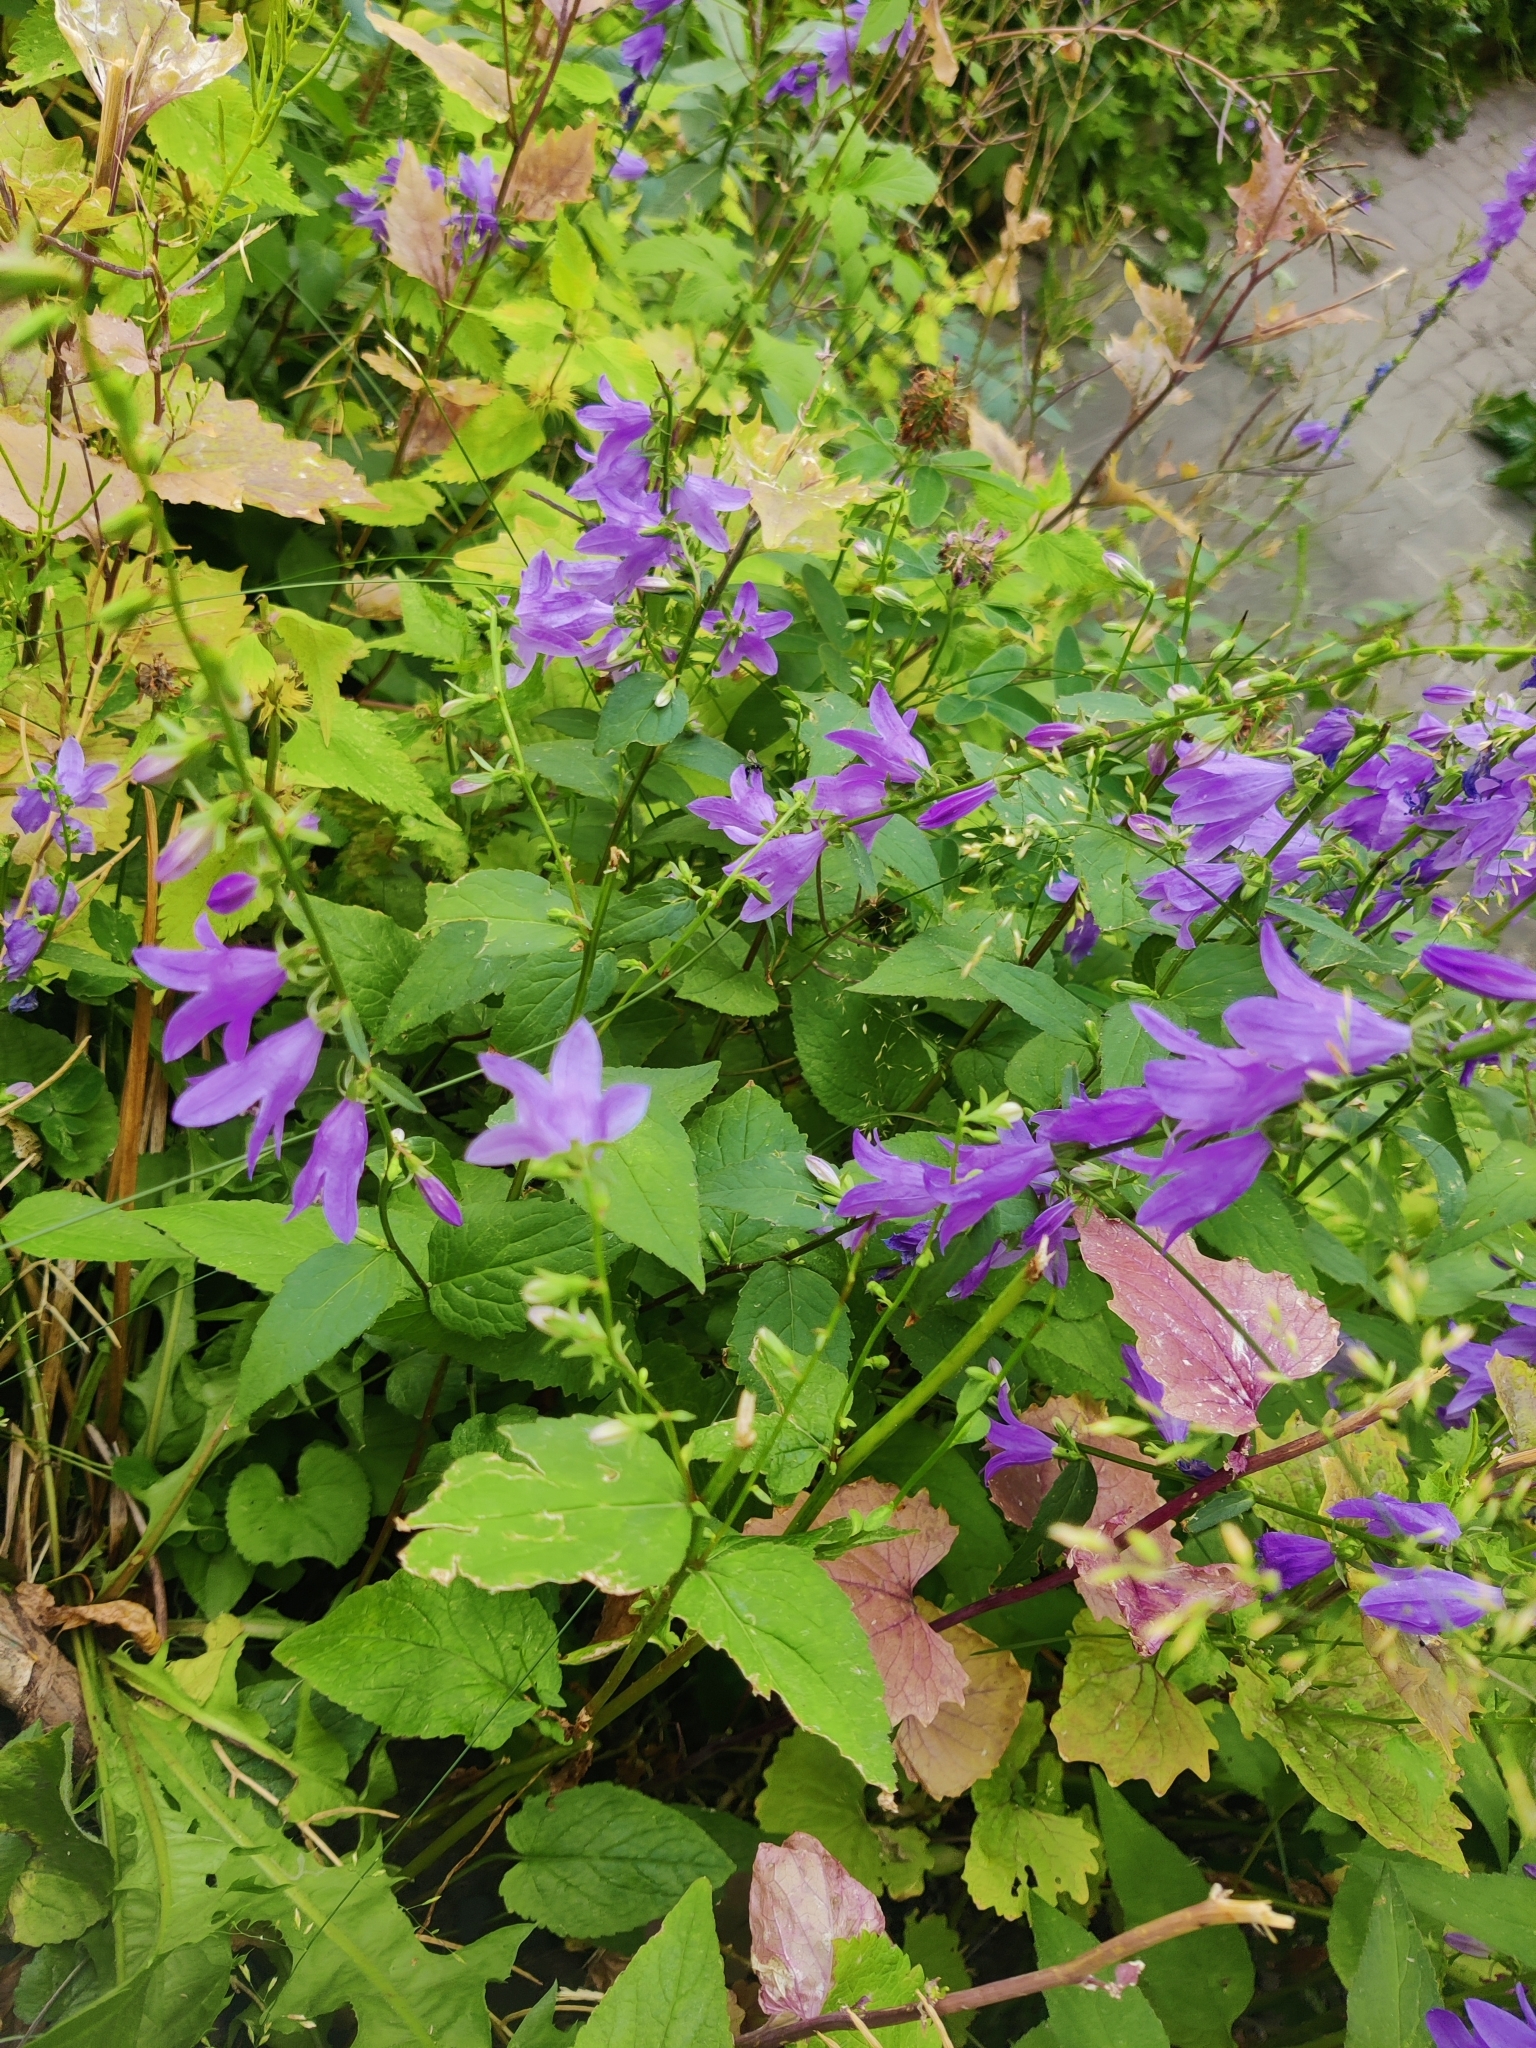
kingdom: Plantae
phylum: Tracheophyta
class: Magnoliopsida
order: Asterales
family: Campanulaceae
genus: Campanula
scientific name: Campanula rapunculoides
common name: Creeping bellflower
